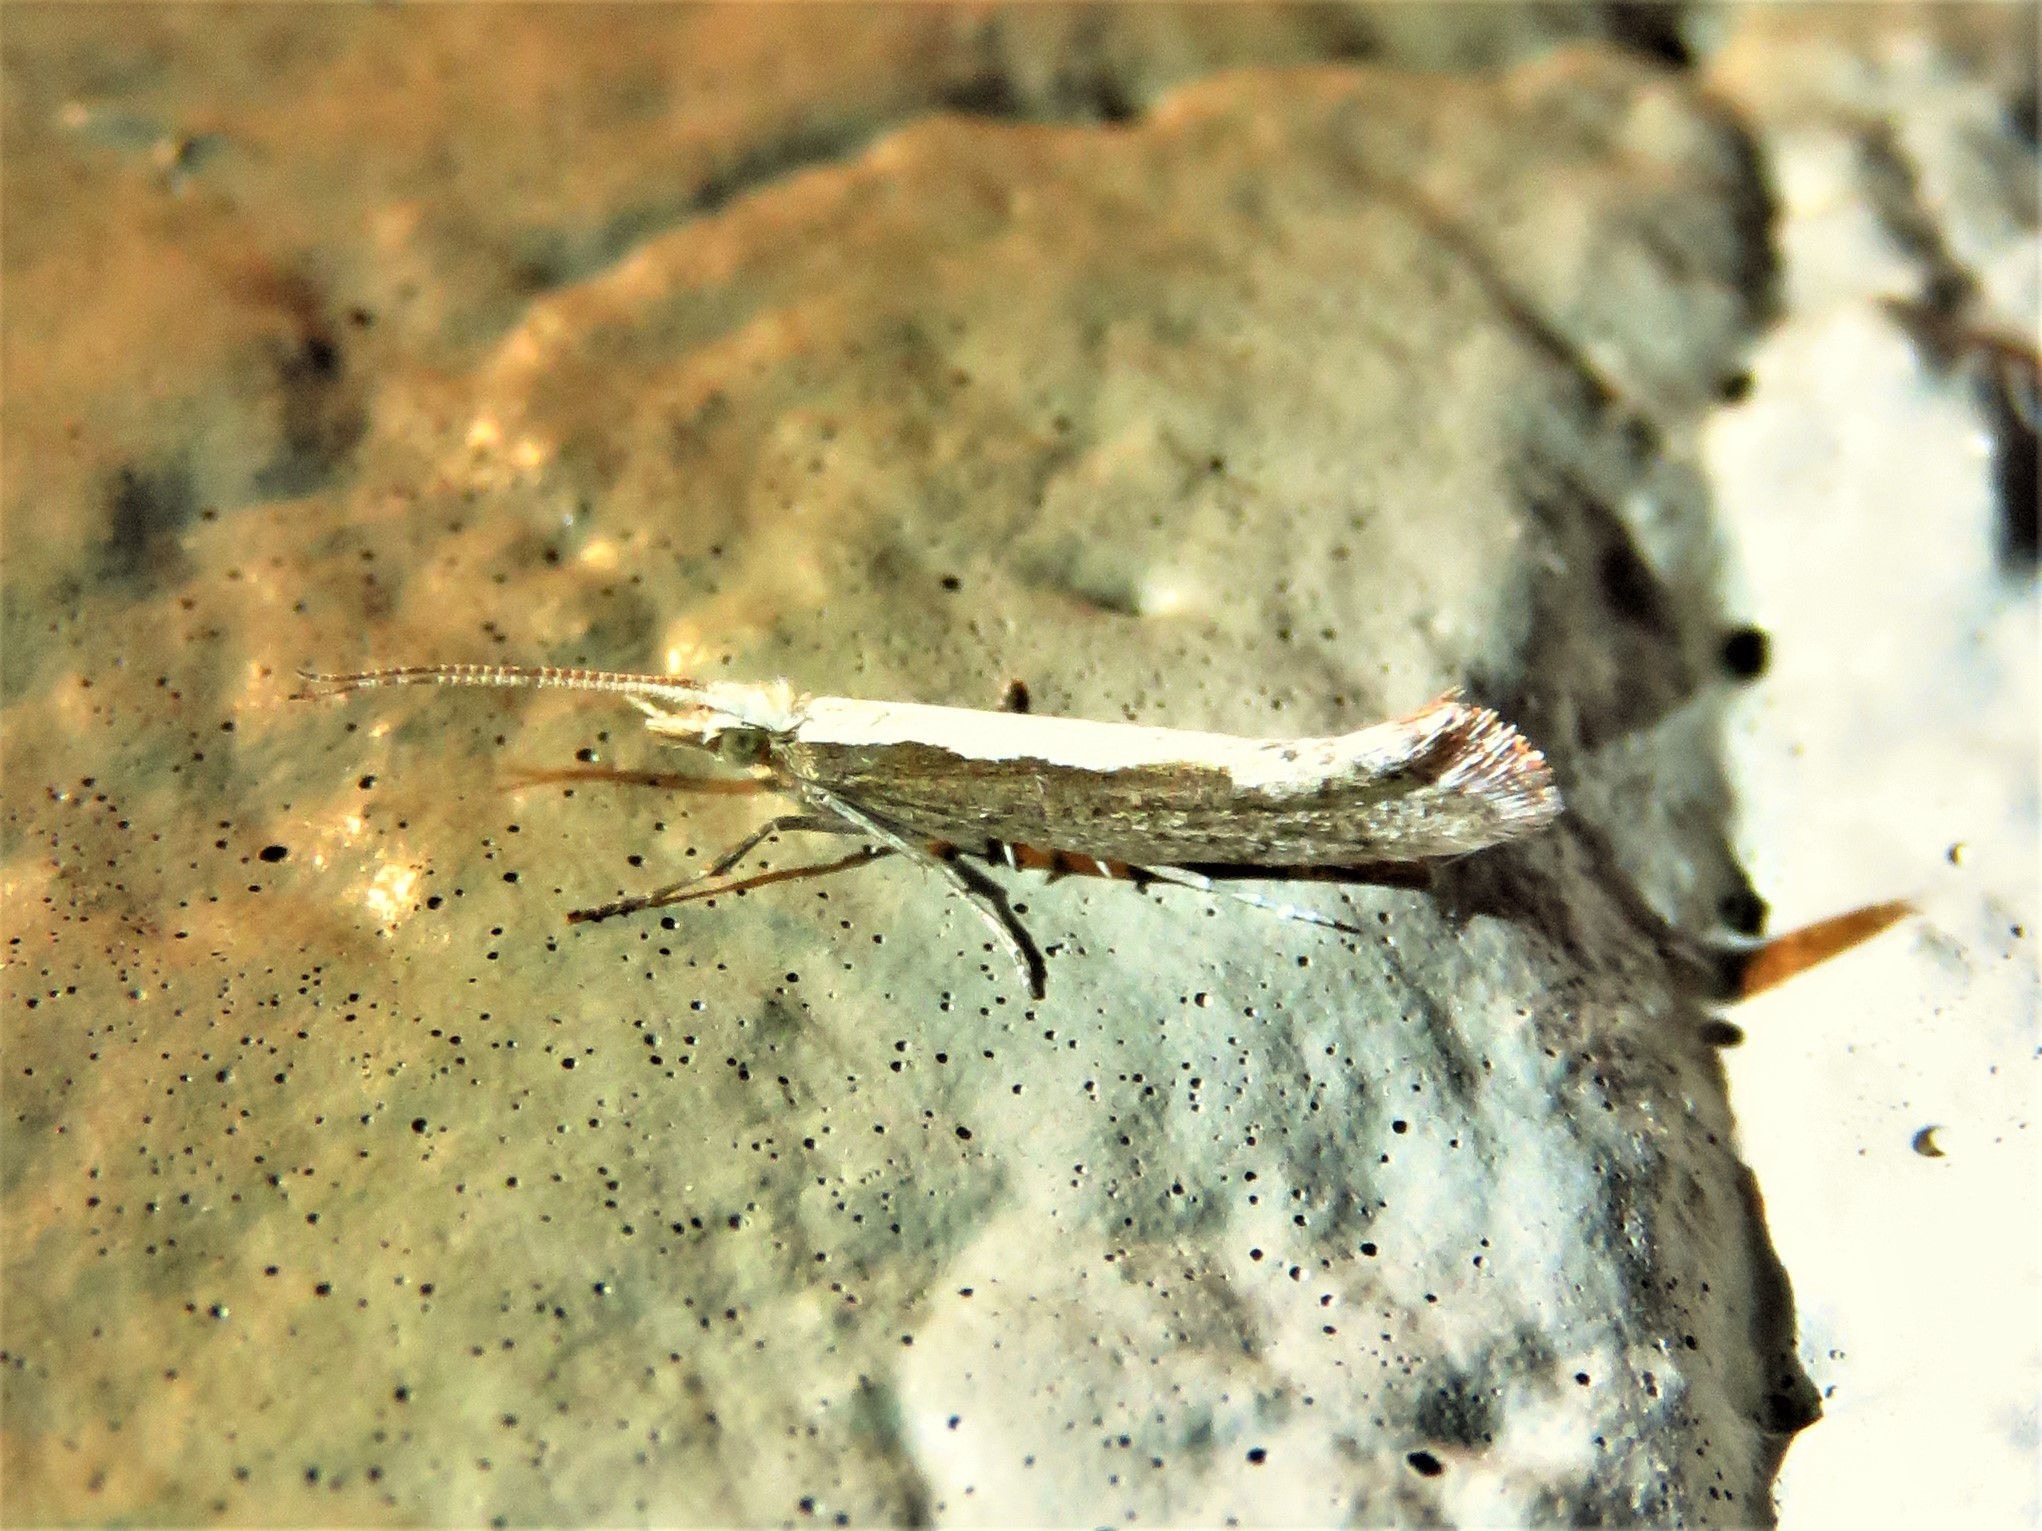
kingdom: Animalia
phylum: Arthropoda
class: Insecta
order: Lepidoptera
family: Plutellidae
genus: Plutella
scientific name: Plutella xylostella
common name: Diamond-back moth
